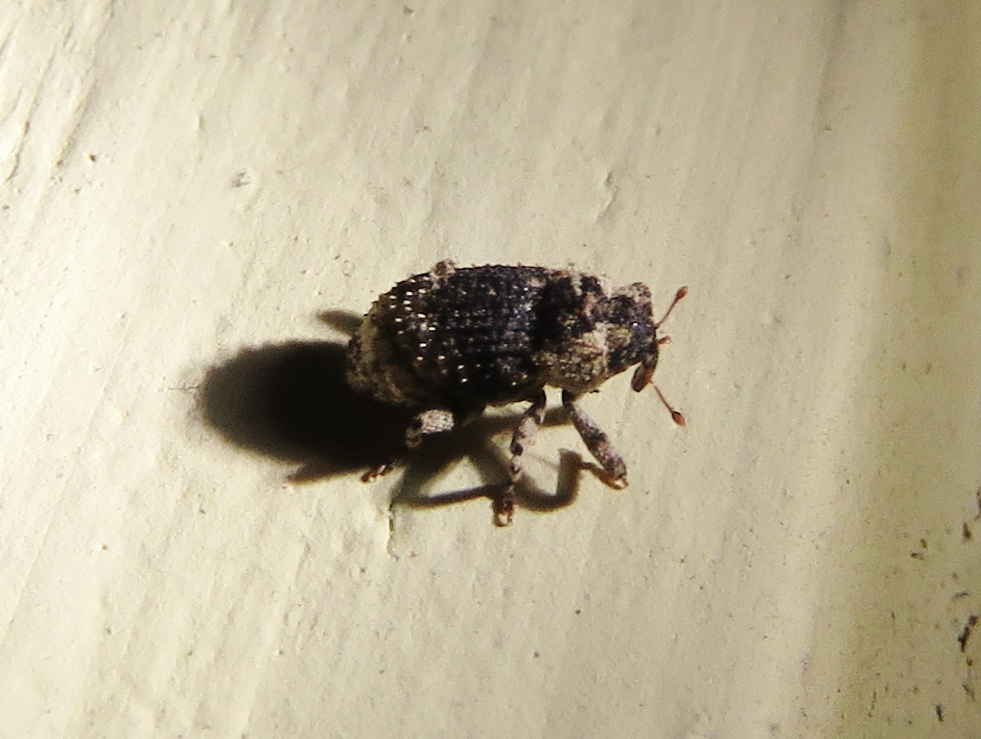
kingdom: Animalia
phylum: Arthropoda
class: Insecta
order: Coleoptera
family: Curculionidae
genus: Cophes
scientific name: Cophes fallax
